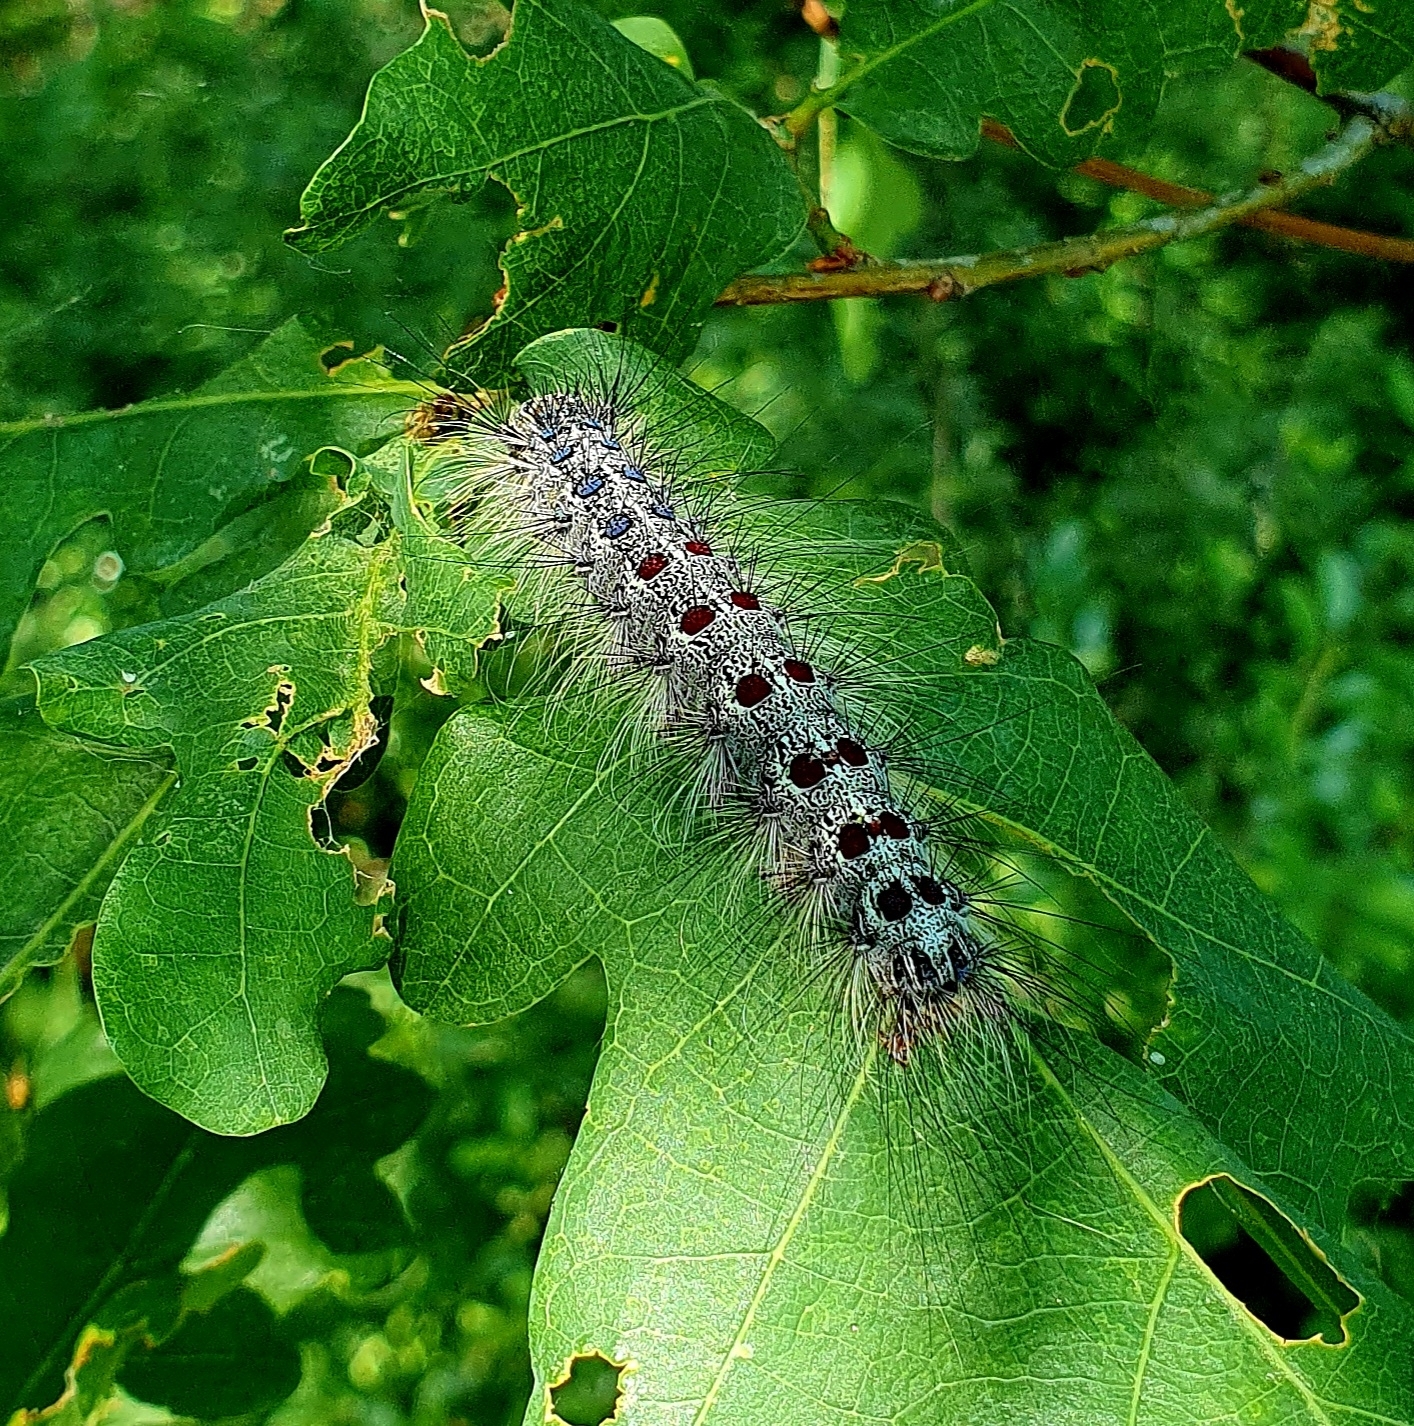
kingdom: Animalia
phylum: Arthropoda
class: Insecta
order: Lepidoptera
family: Erebidae
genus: Lymantria
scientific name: Lymantria dispar
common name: Gypsy moth
